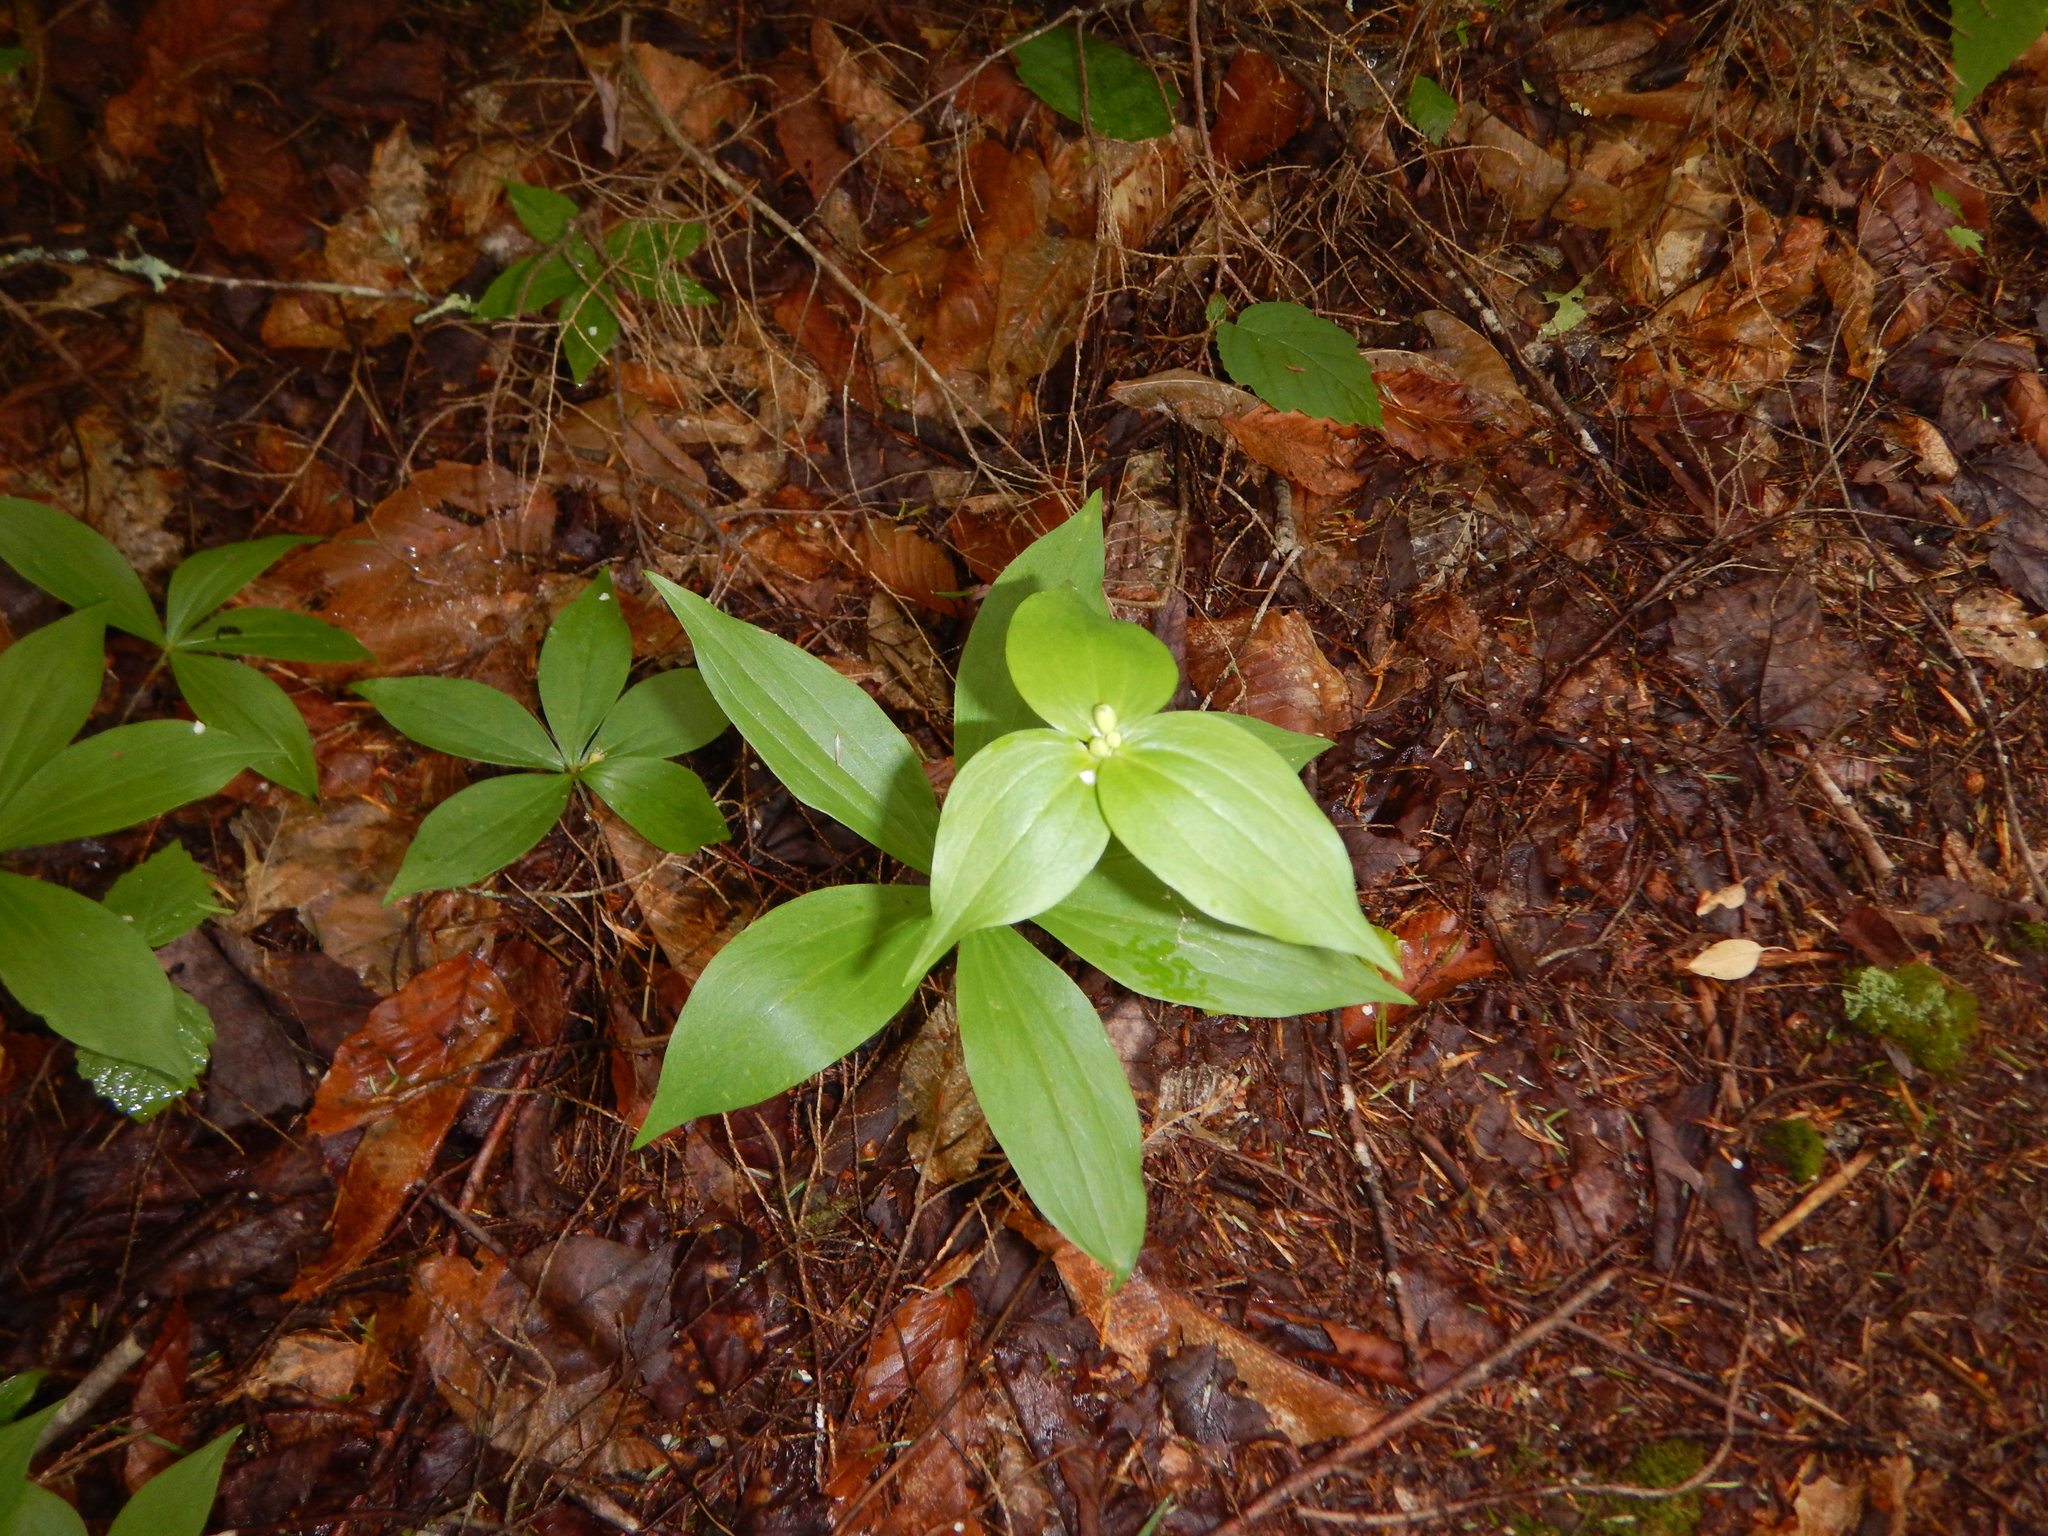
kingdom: Plantae
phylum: Tracheophyta
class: Liliopsida
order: Liliales
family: Liliaceae
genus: Medeola
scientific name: Medeola virginiana
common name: Indian cucumber-root
